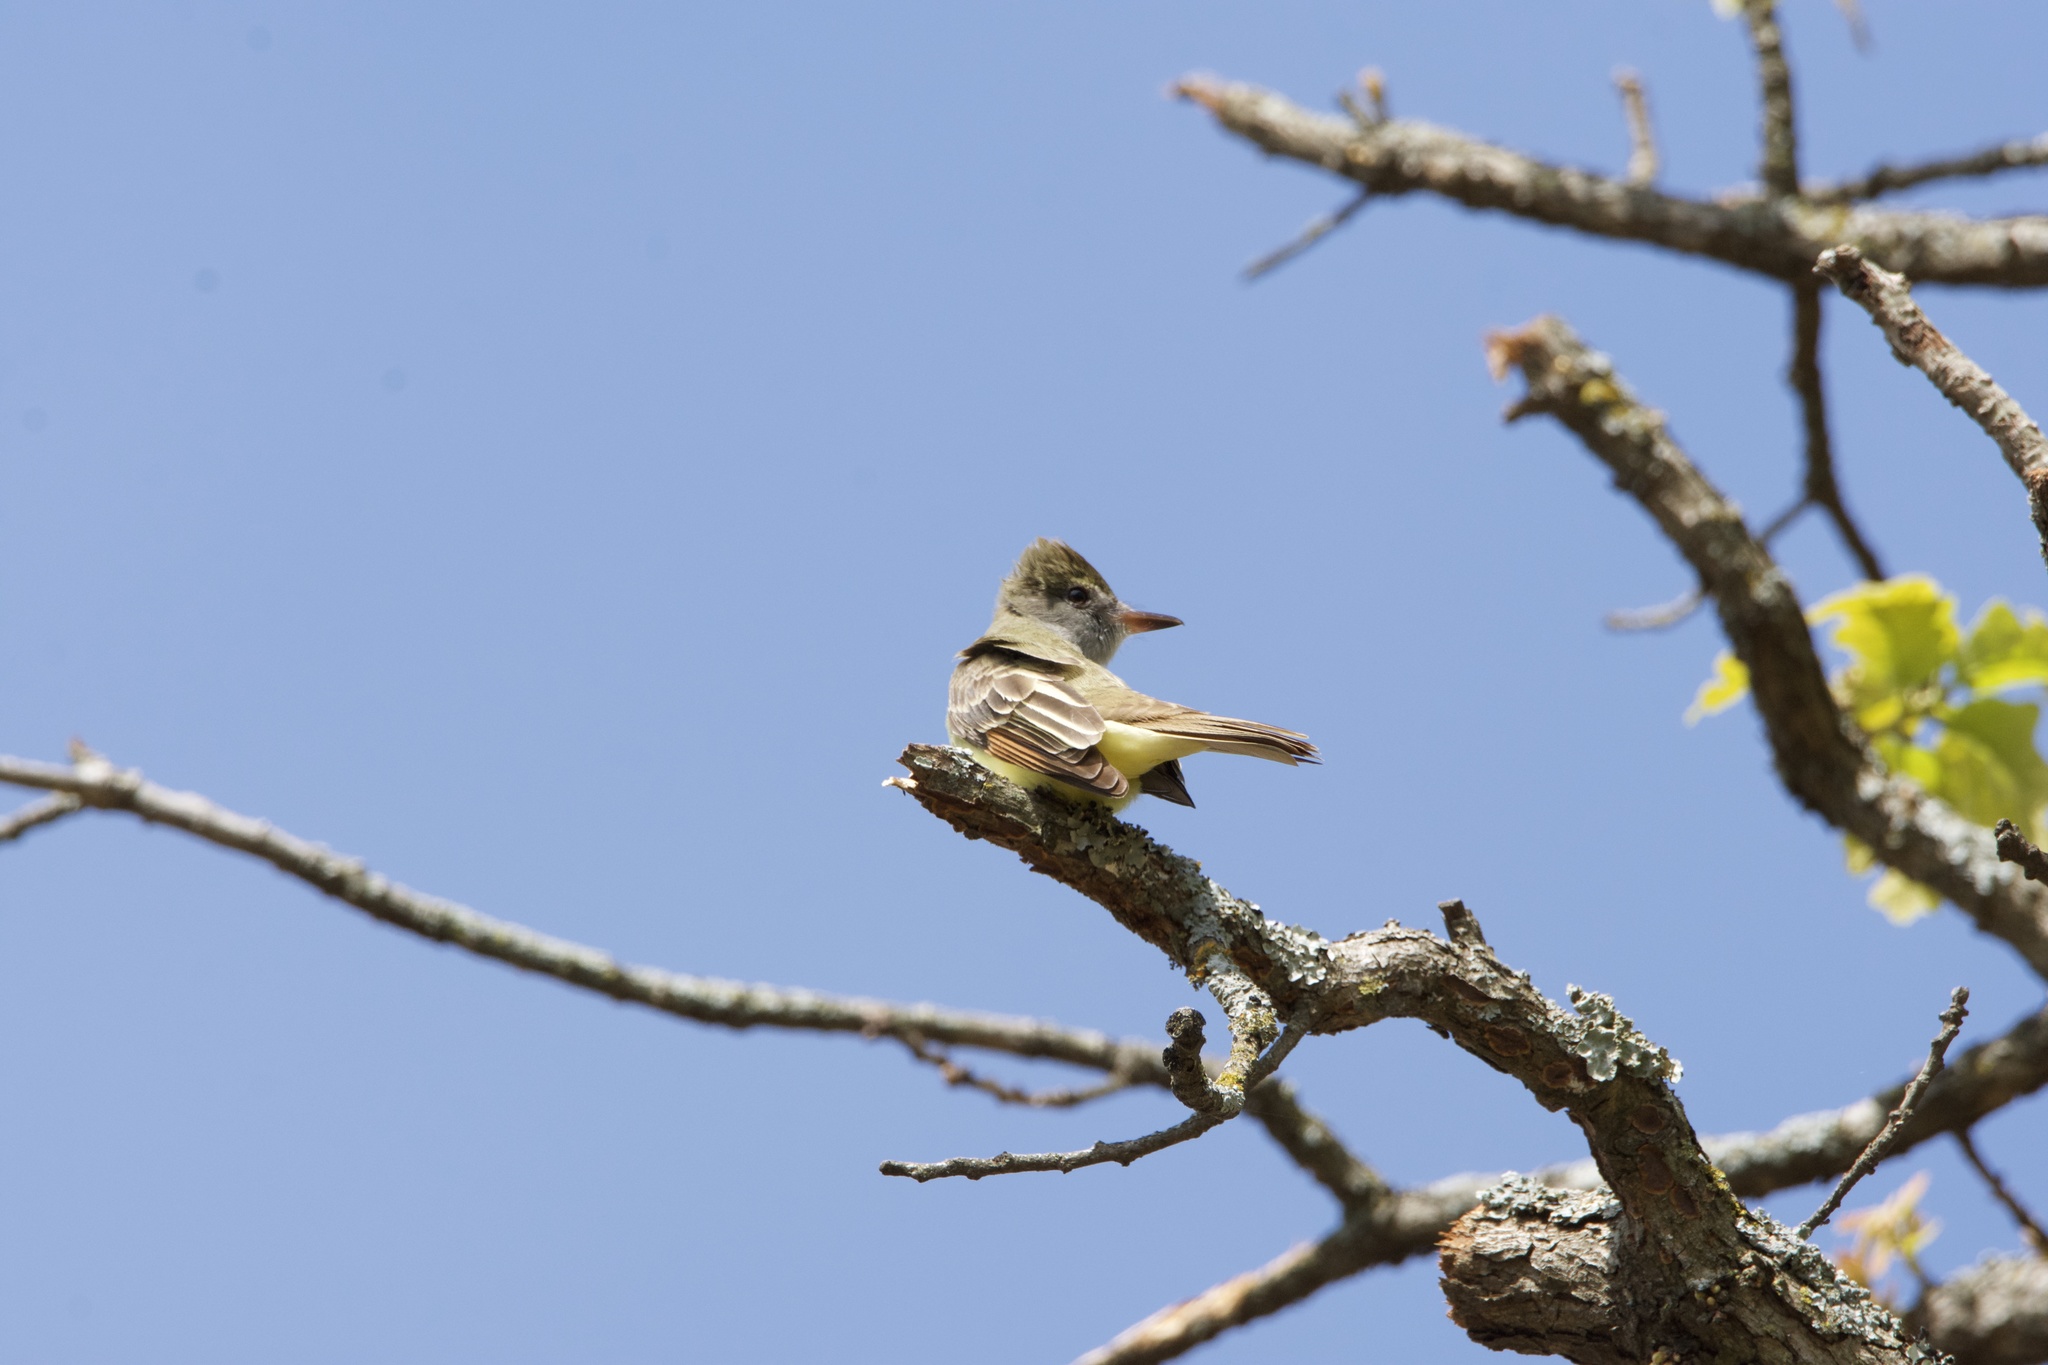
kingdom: Animalia
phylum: Chordata
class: Aves
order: Passeriformes
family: Tyrannidae
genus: Myiarchus
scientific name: Myiarchus crinitus
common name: Great crested flycatcher
